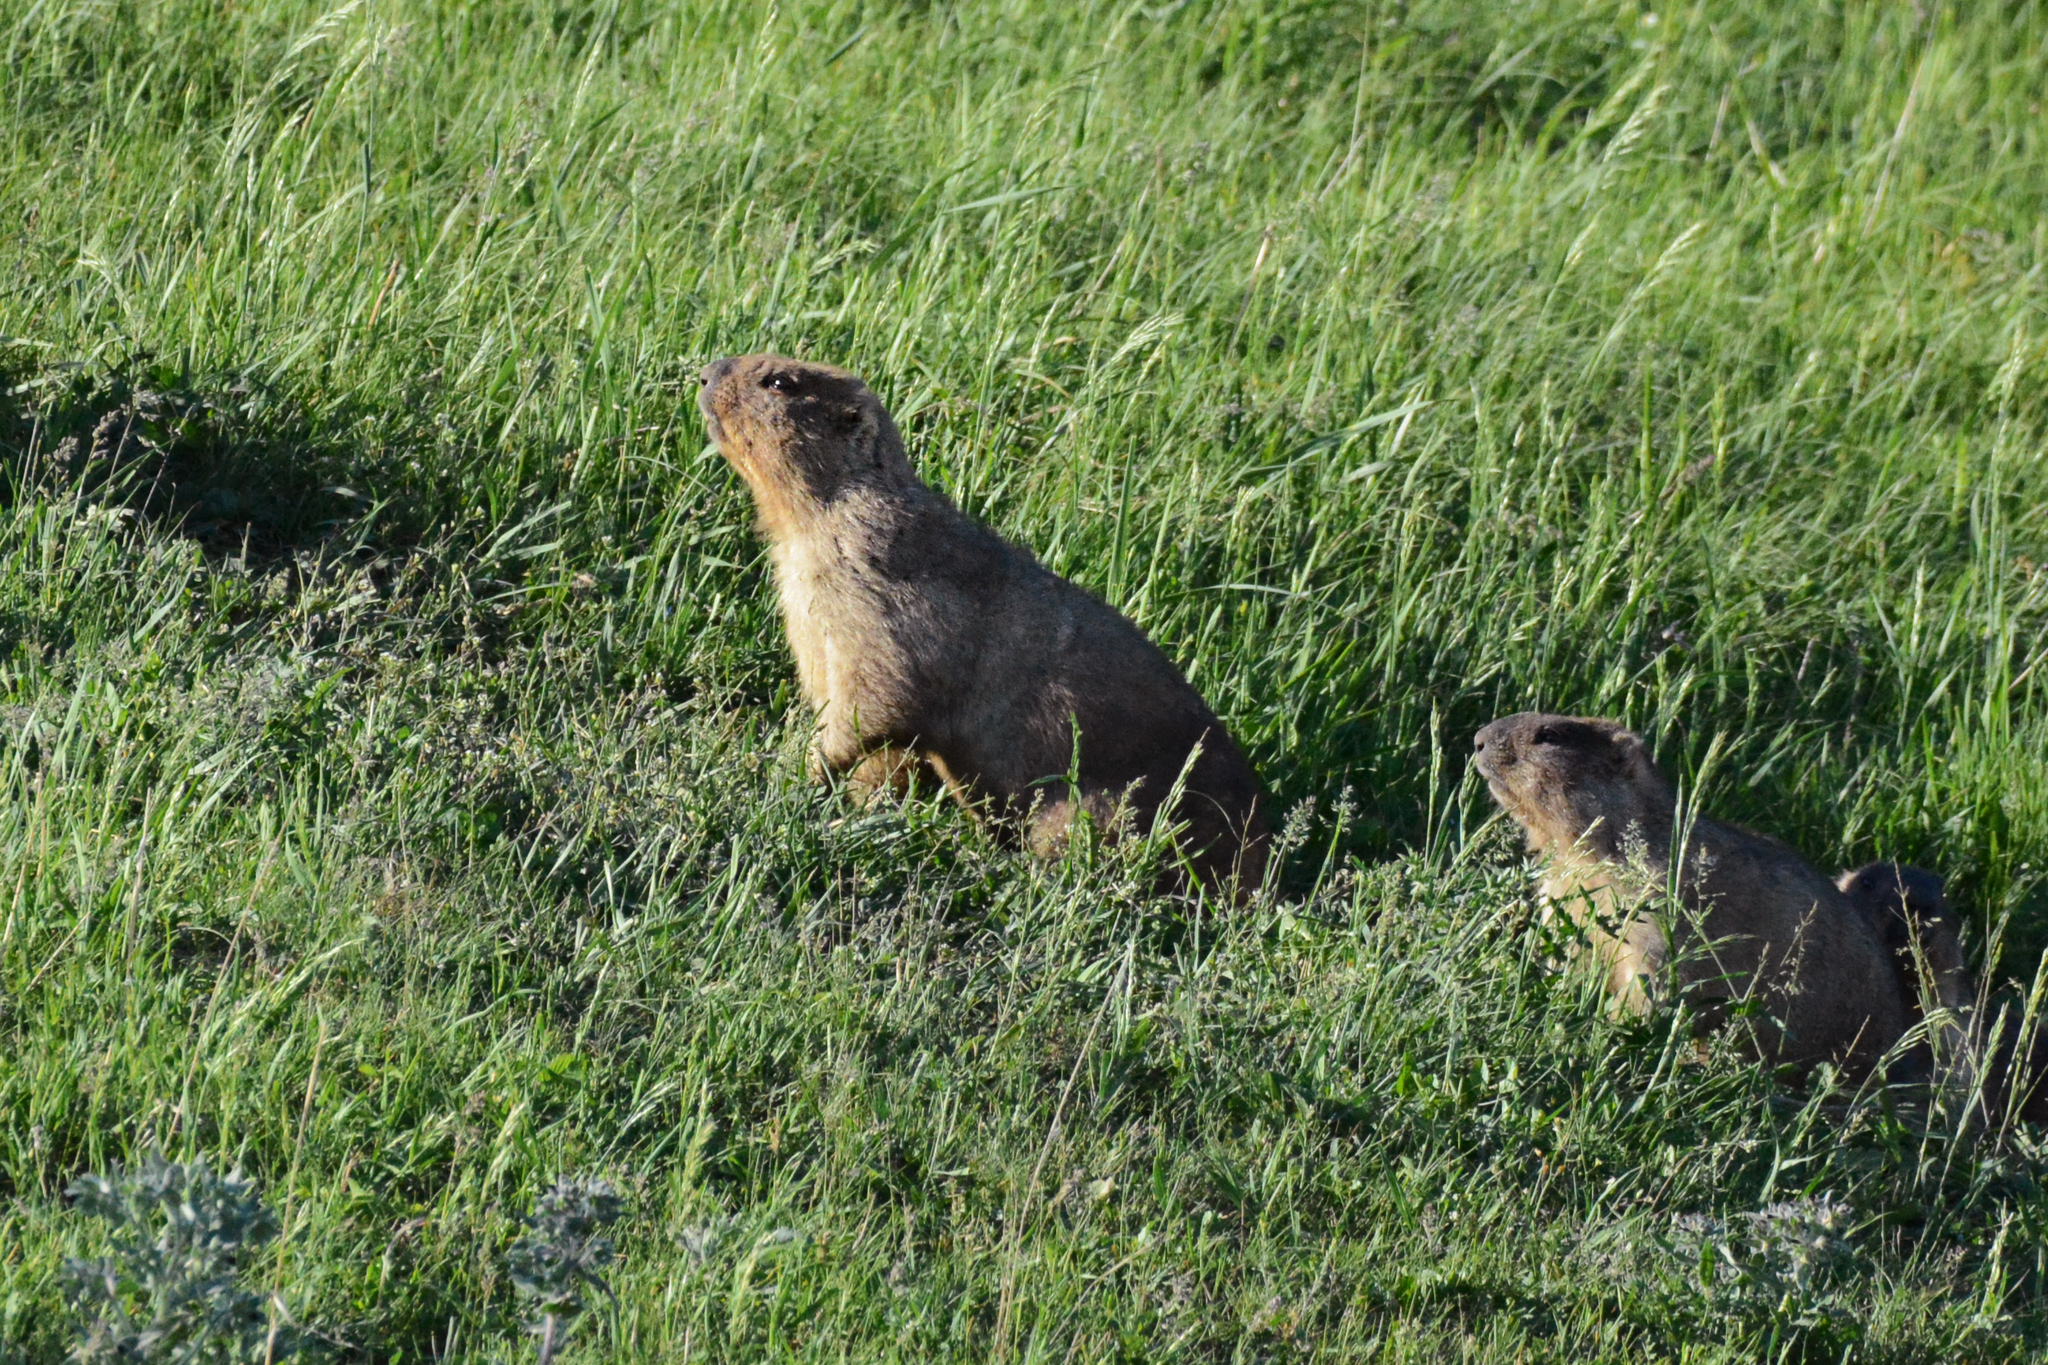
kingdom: Animalia
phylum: Chordata
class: Mammalia
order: Rodentia
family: Sciuridae
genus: Marmota
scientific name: Marmota bobak
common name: Bobak marmot
